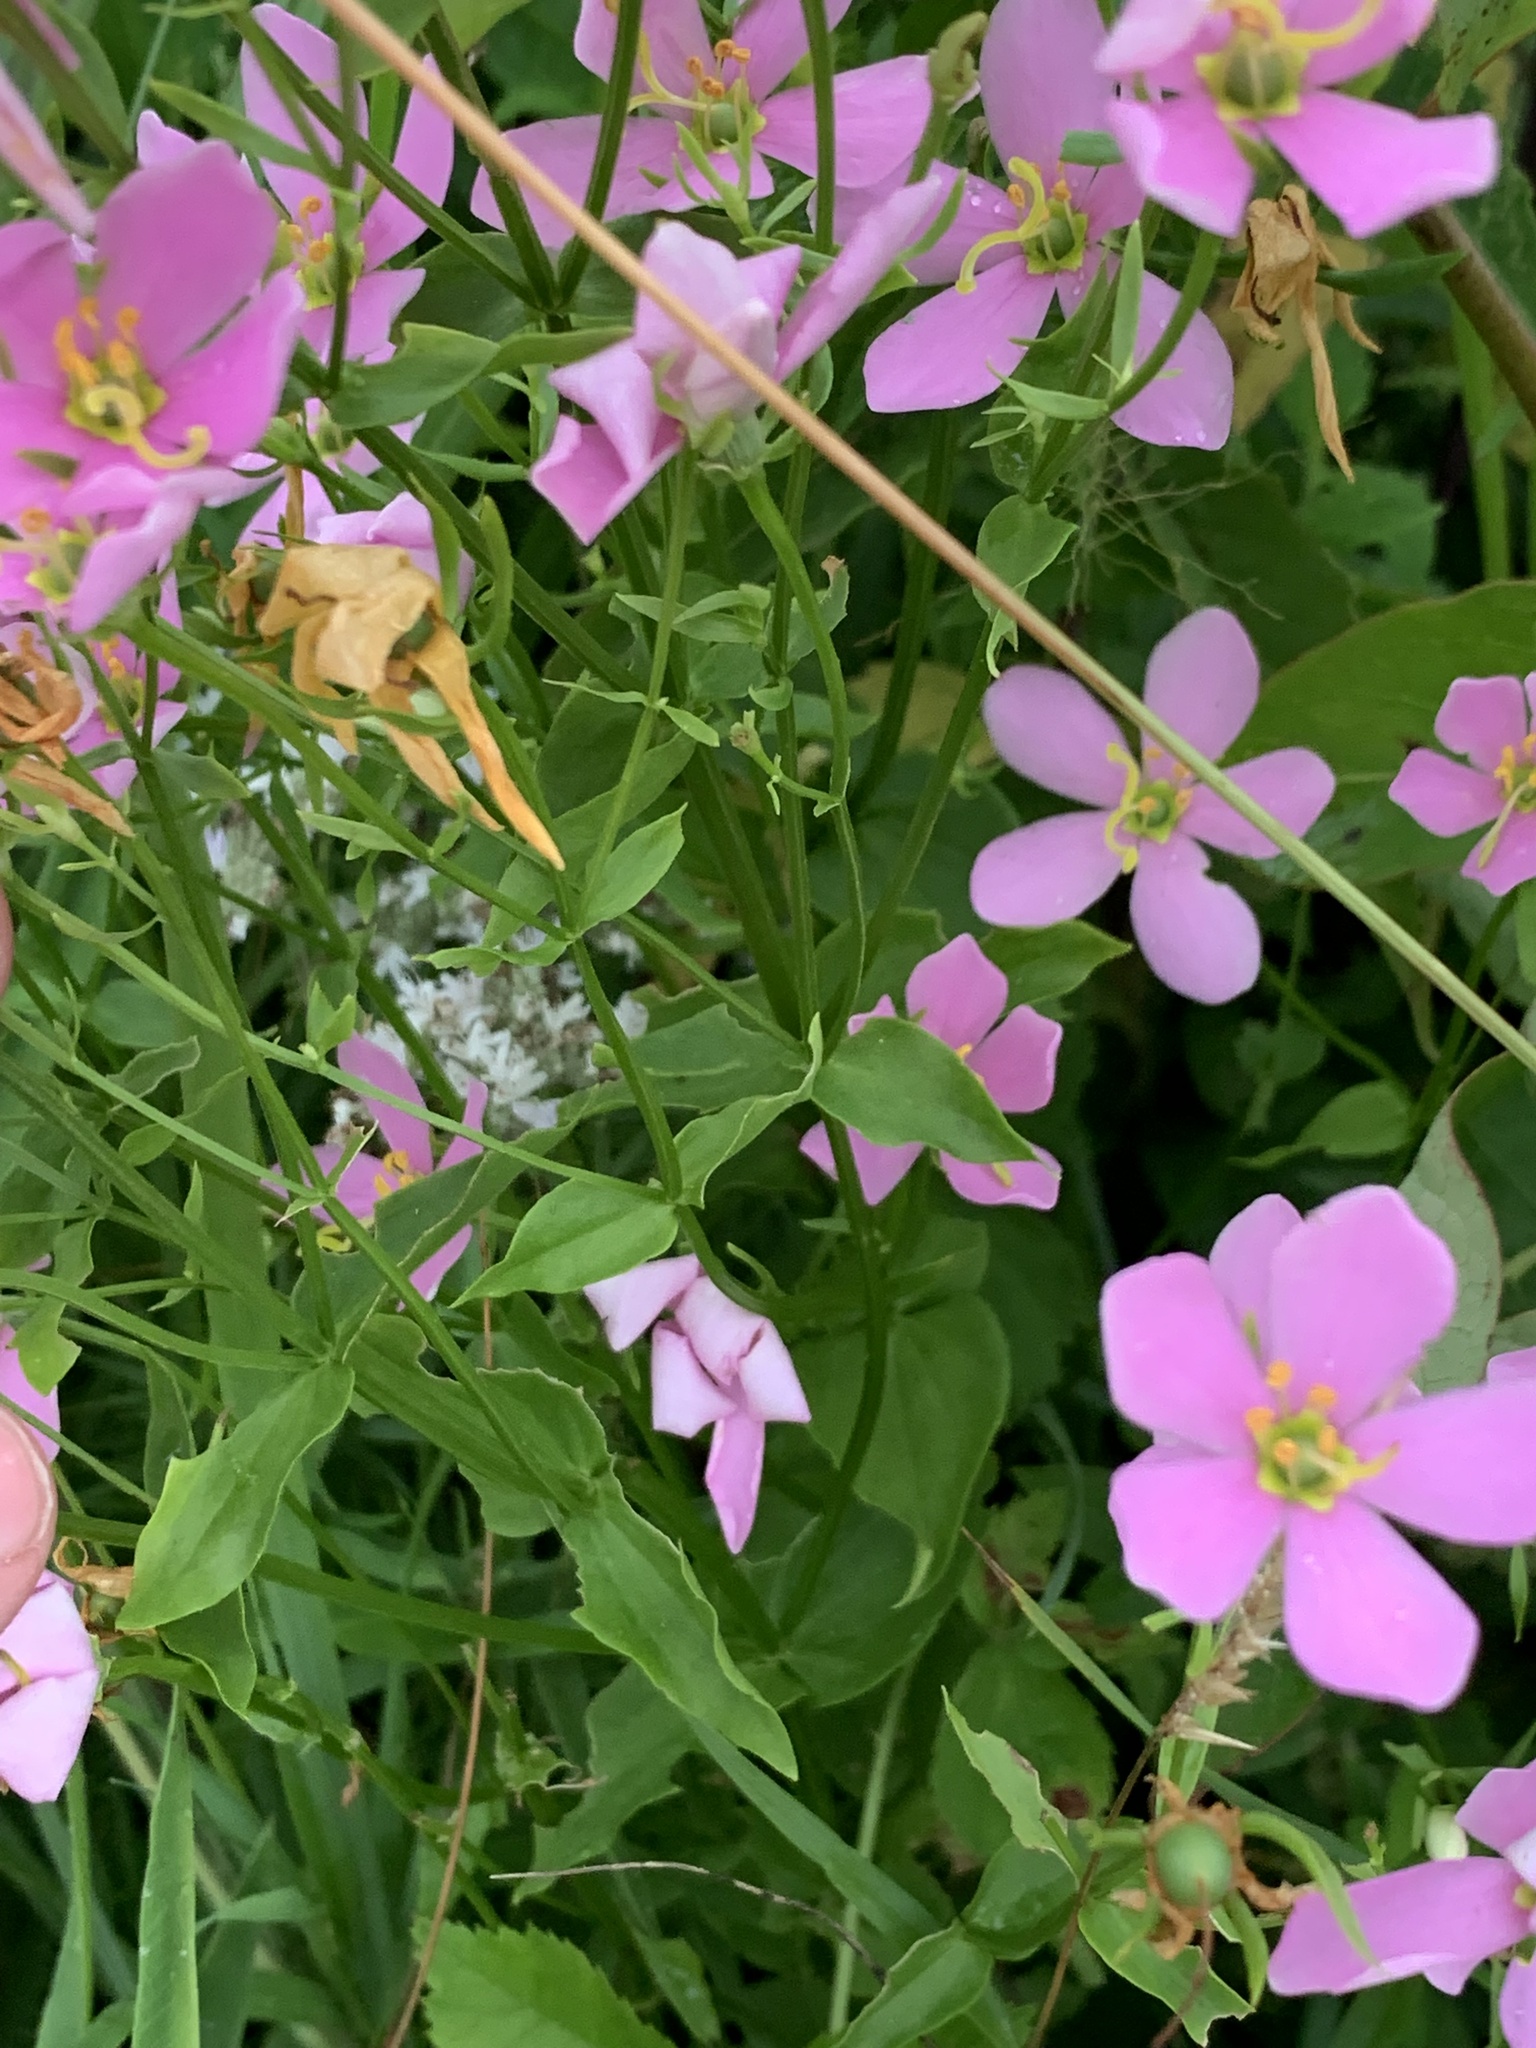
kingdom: Plantae
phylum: Tracheophyta
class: Magnoliopsida
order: Gentianales
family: Gentianaceae
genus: Sabatia
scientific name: Sabatia angularis
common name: Rose-pink
